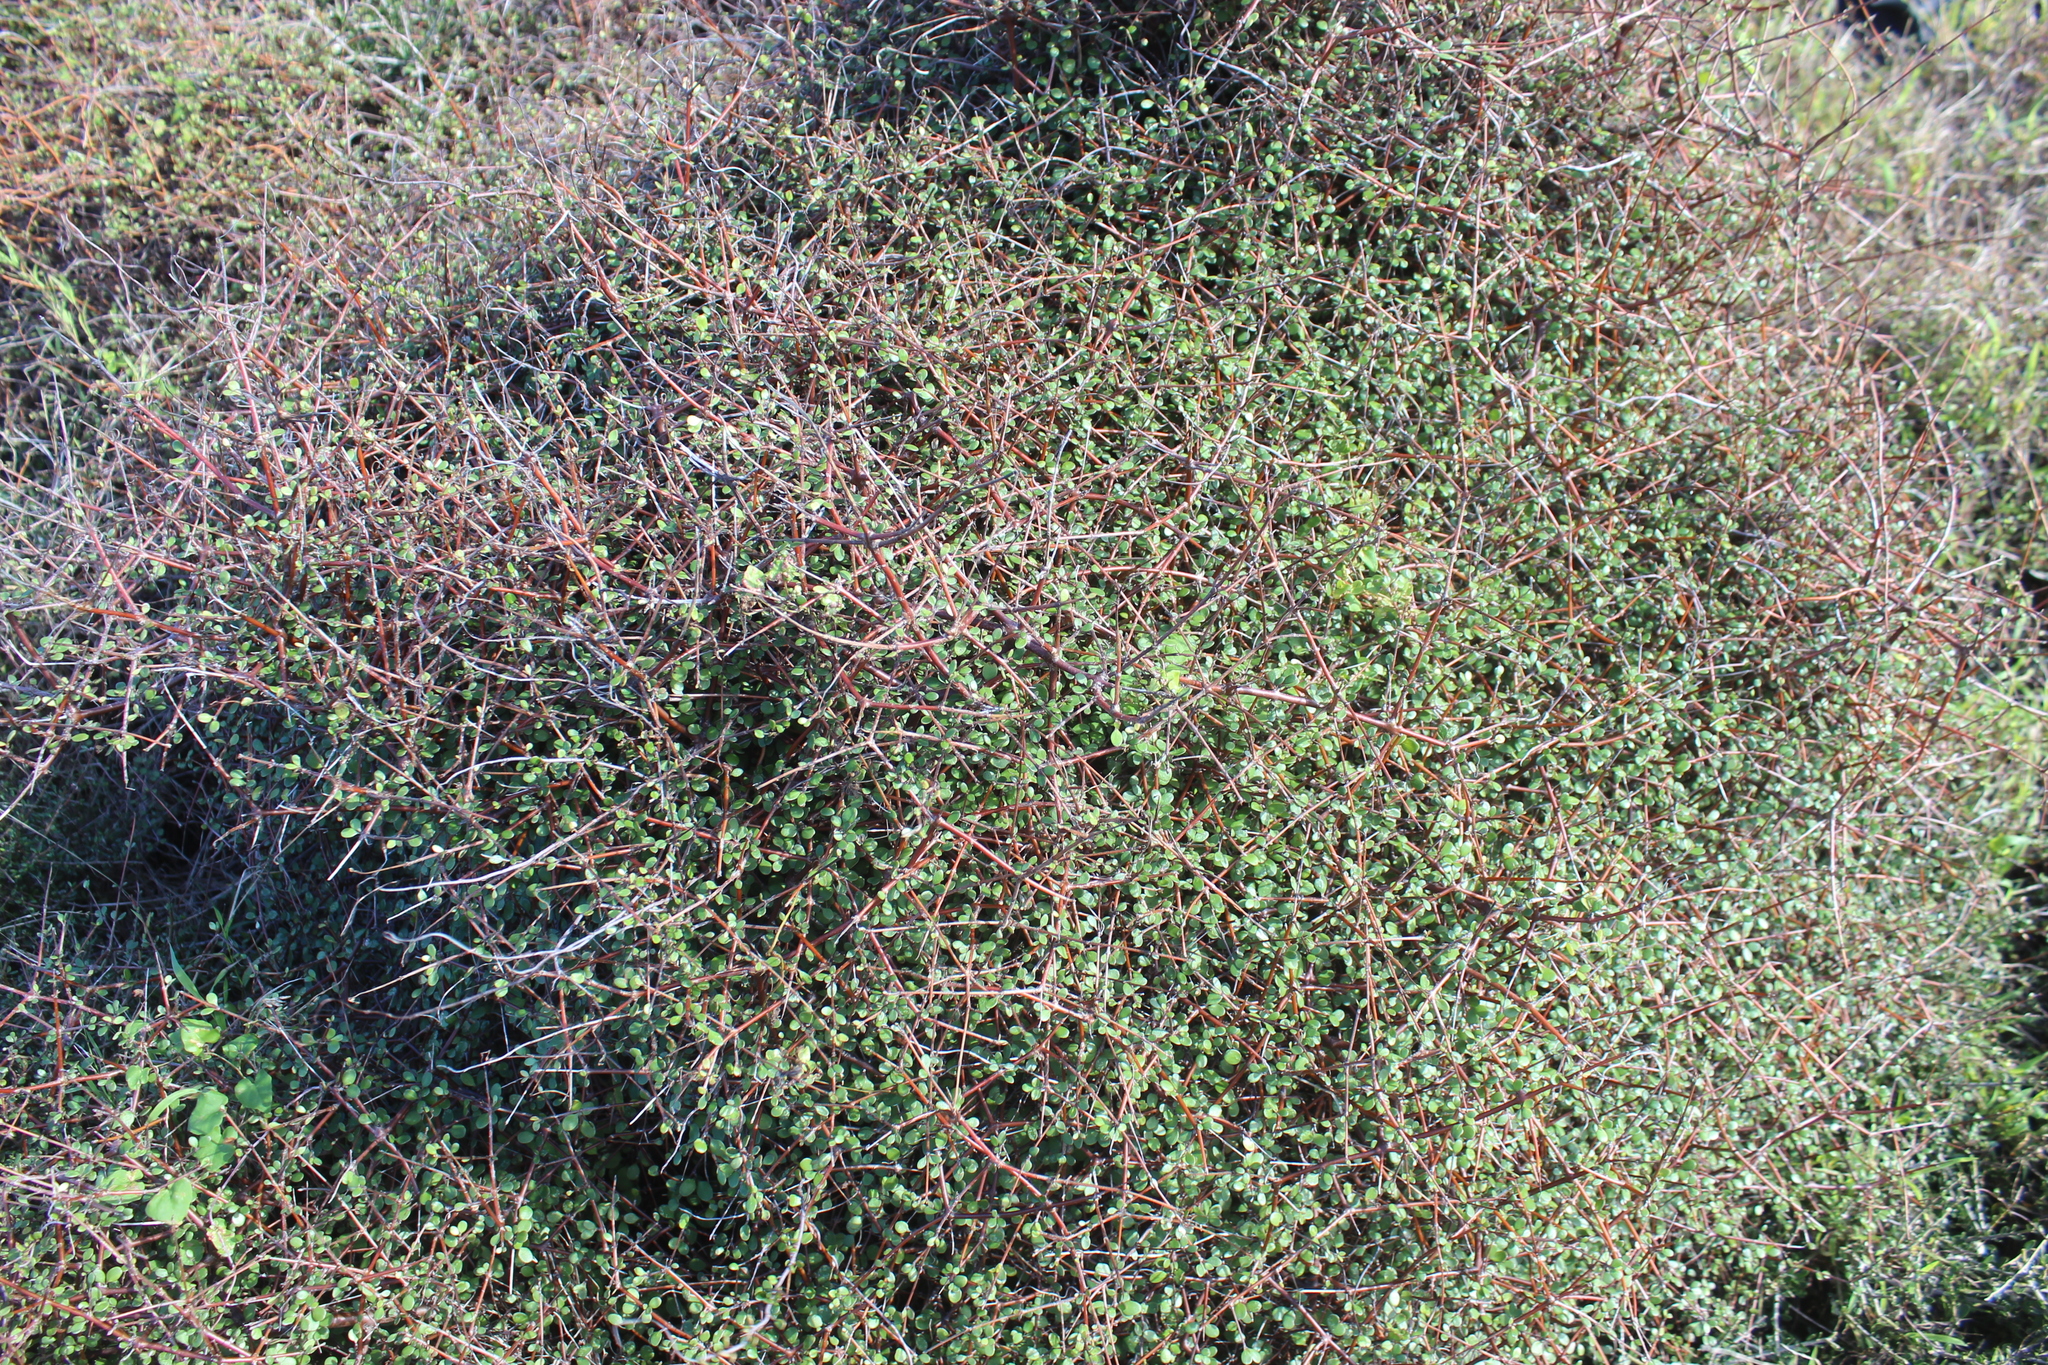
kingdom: Plantae
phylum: Tracheophyta
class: Magnoliopsida
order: Gentianales
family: Rubiaceae
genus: Coprosma
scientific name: Coprosma crassifolia
